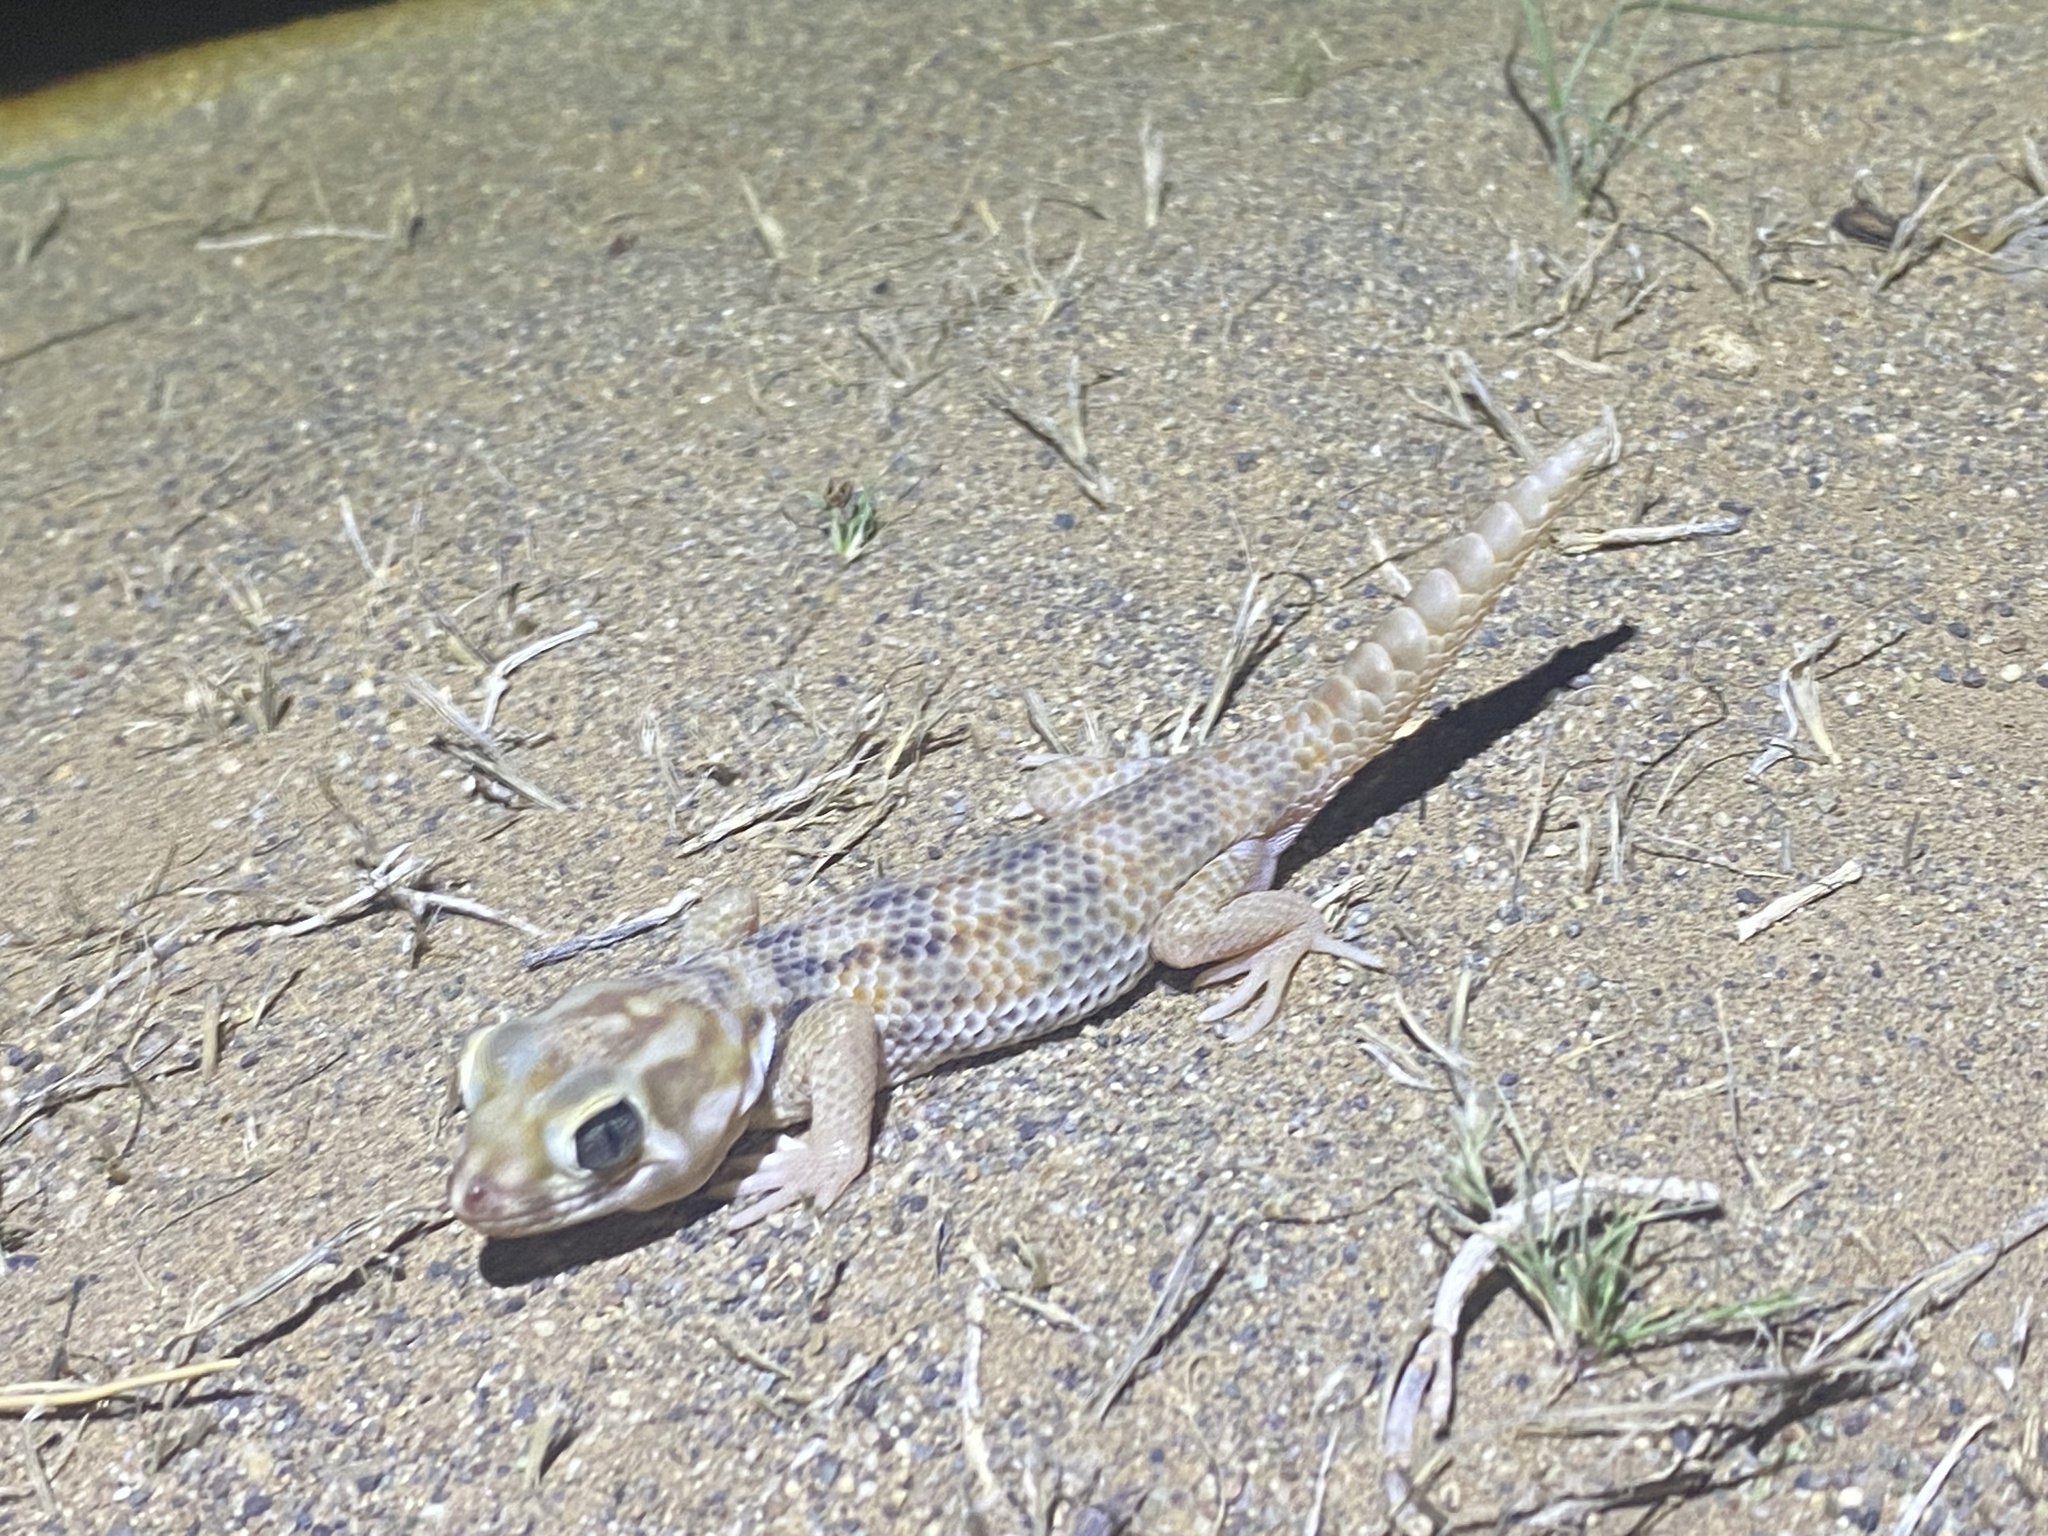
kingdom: Animalia
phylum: Chordata
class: Squamata
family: Sphaerodactylidae
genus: Teratoscincus
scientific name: Teratoscincus keyserlingii
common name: Frog-eyed gecko
